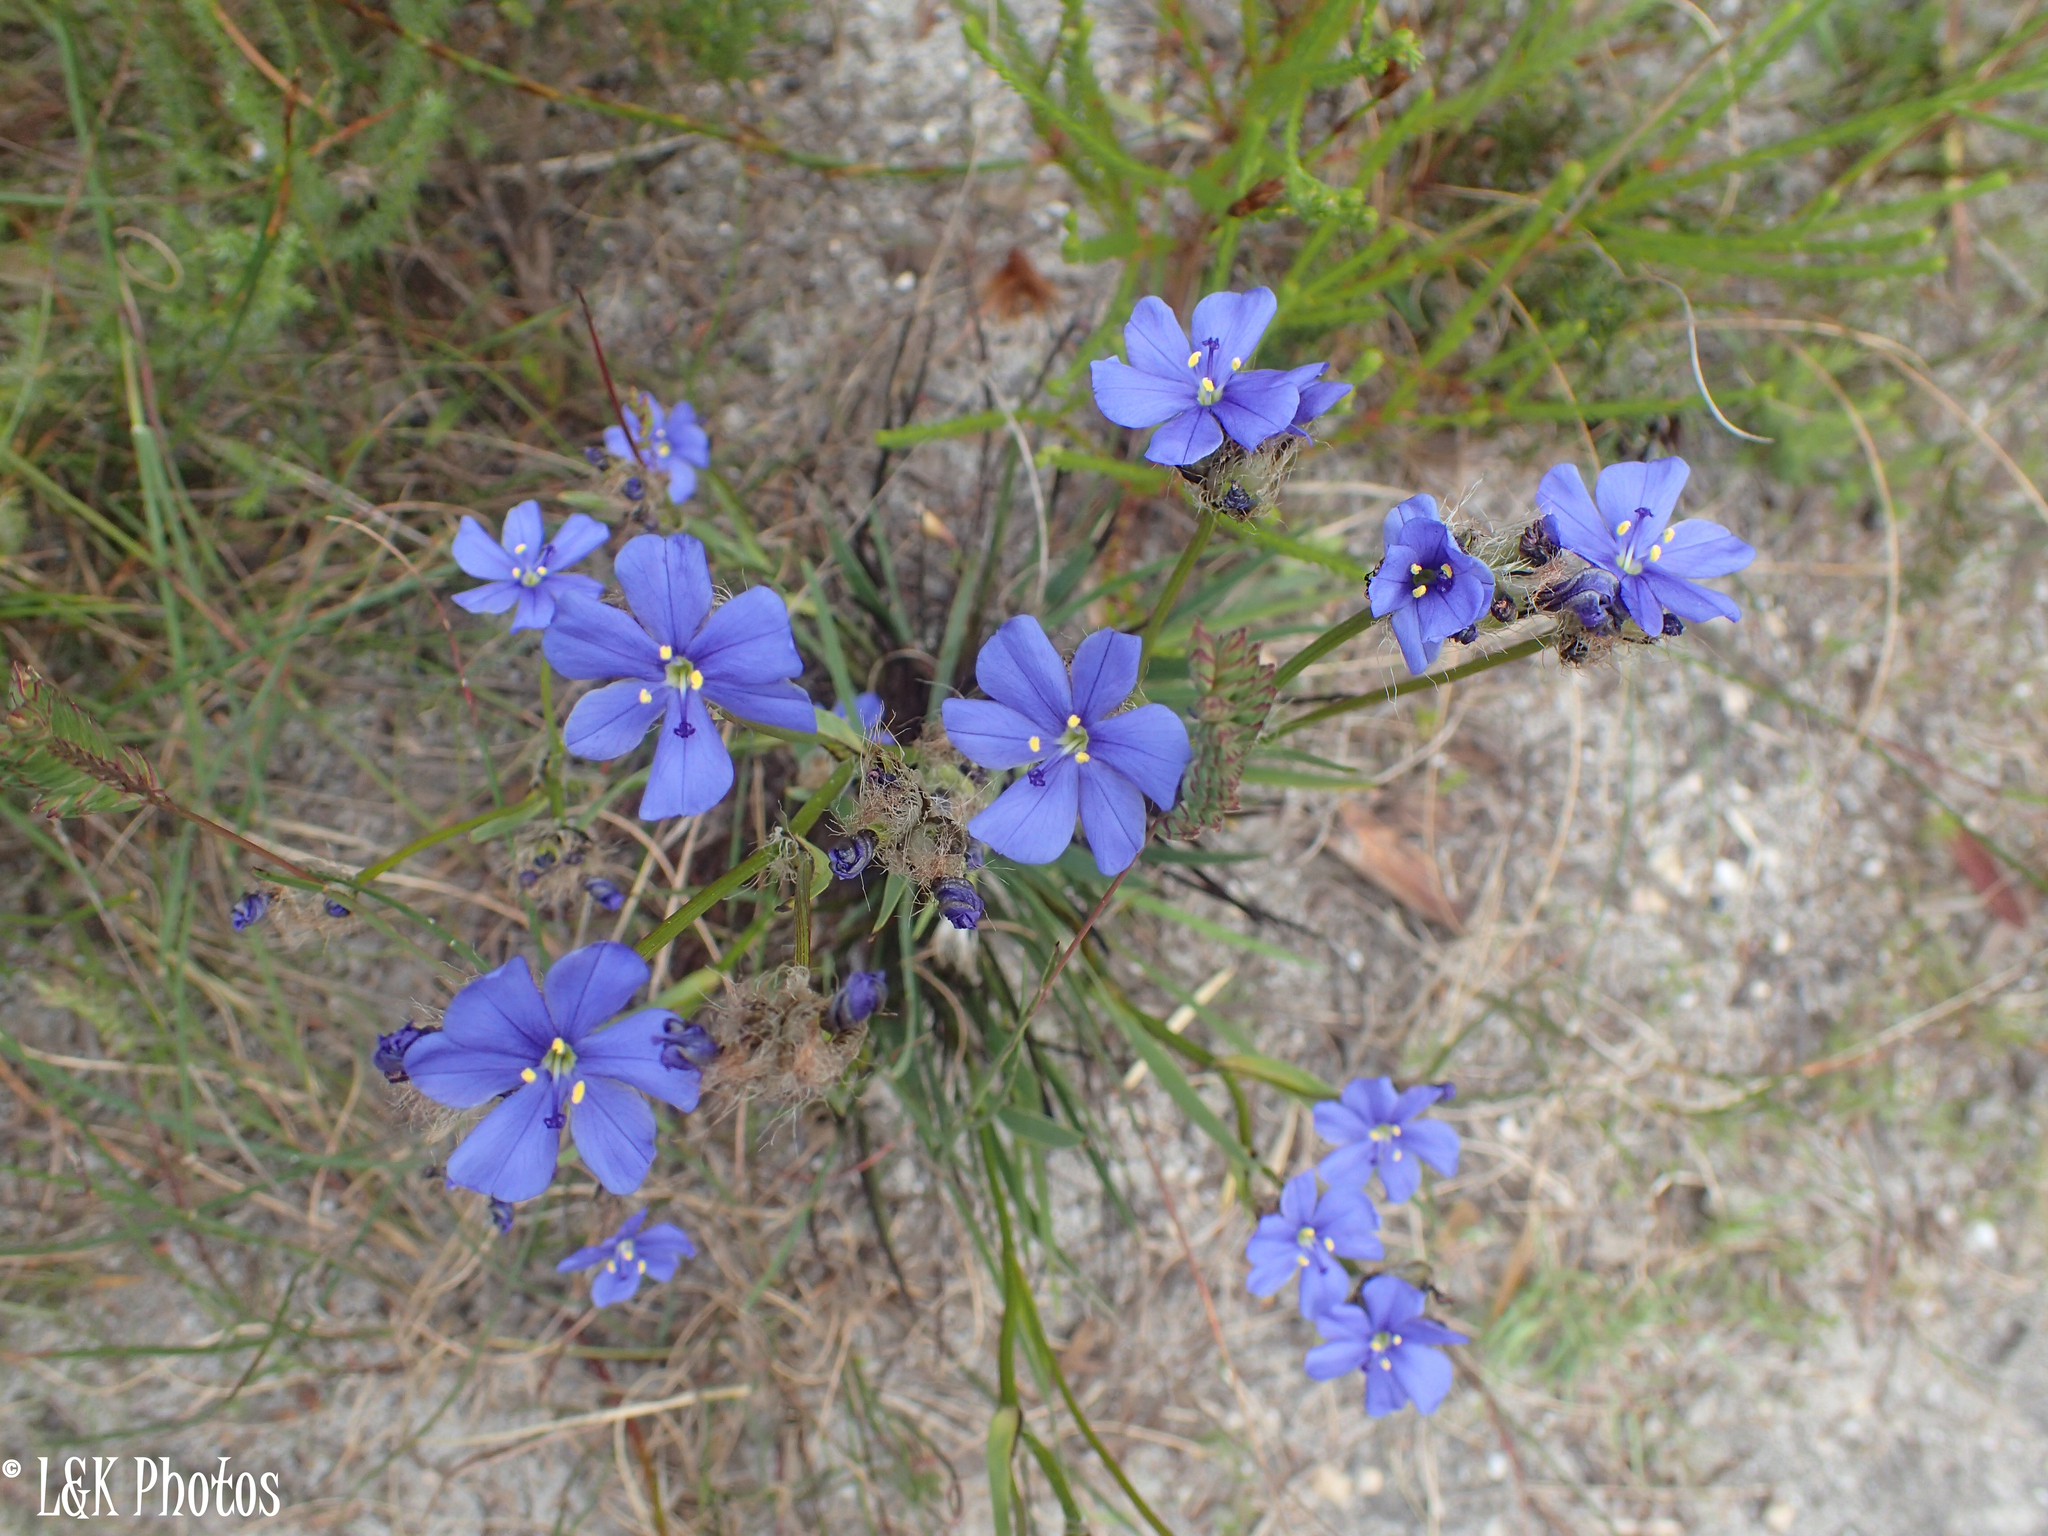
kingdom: Plantae
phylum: Tracheophyta
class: Liliopsida
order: Asparagales
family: Iridaceae
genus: Aristea
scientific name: Aristea juncifolia
